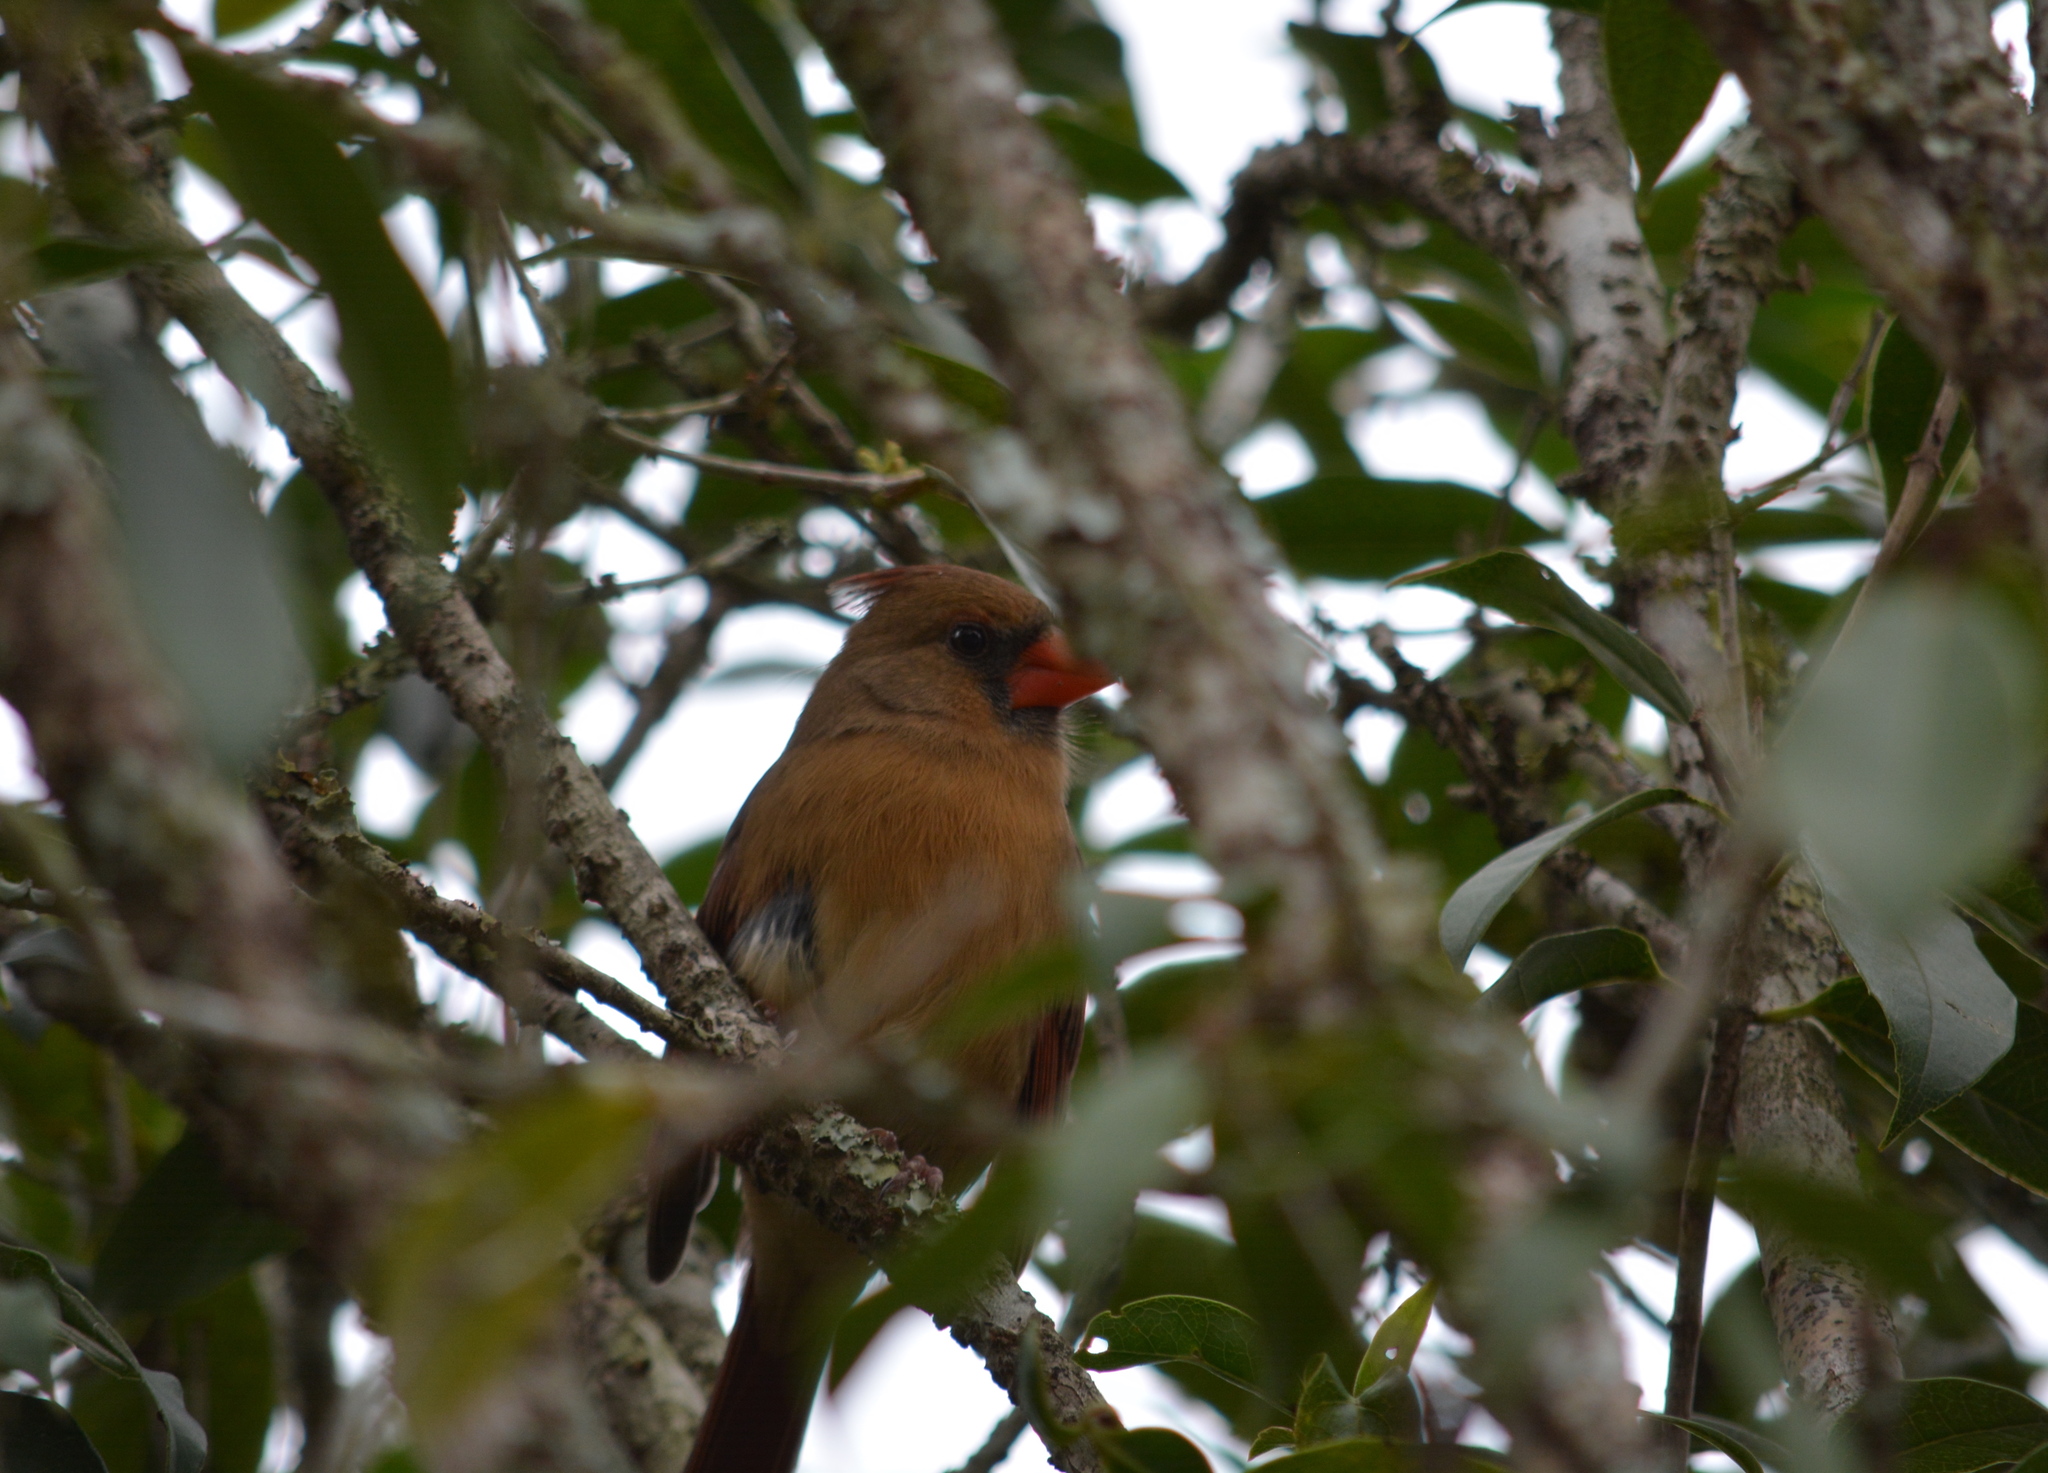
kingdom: Animalia
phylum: Chordata
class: Aves
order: Passeriformes
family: Cardinalidae
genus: Cardinalis
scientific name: Cardinalis cardinalis
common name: Northern cardinal
